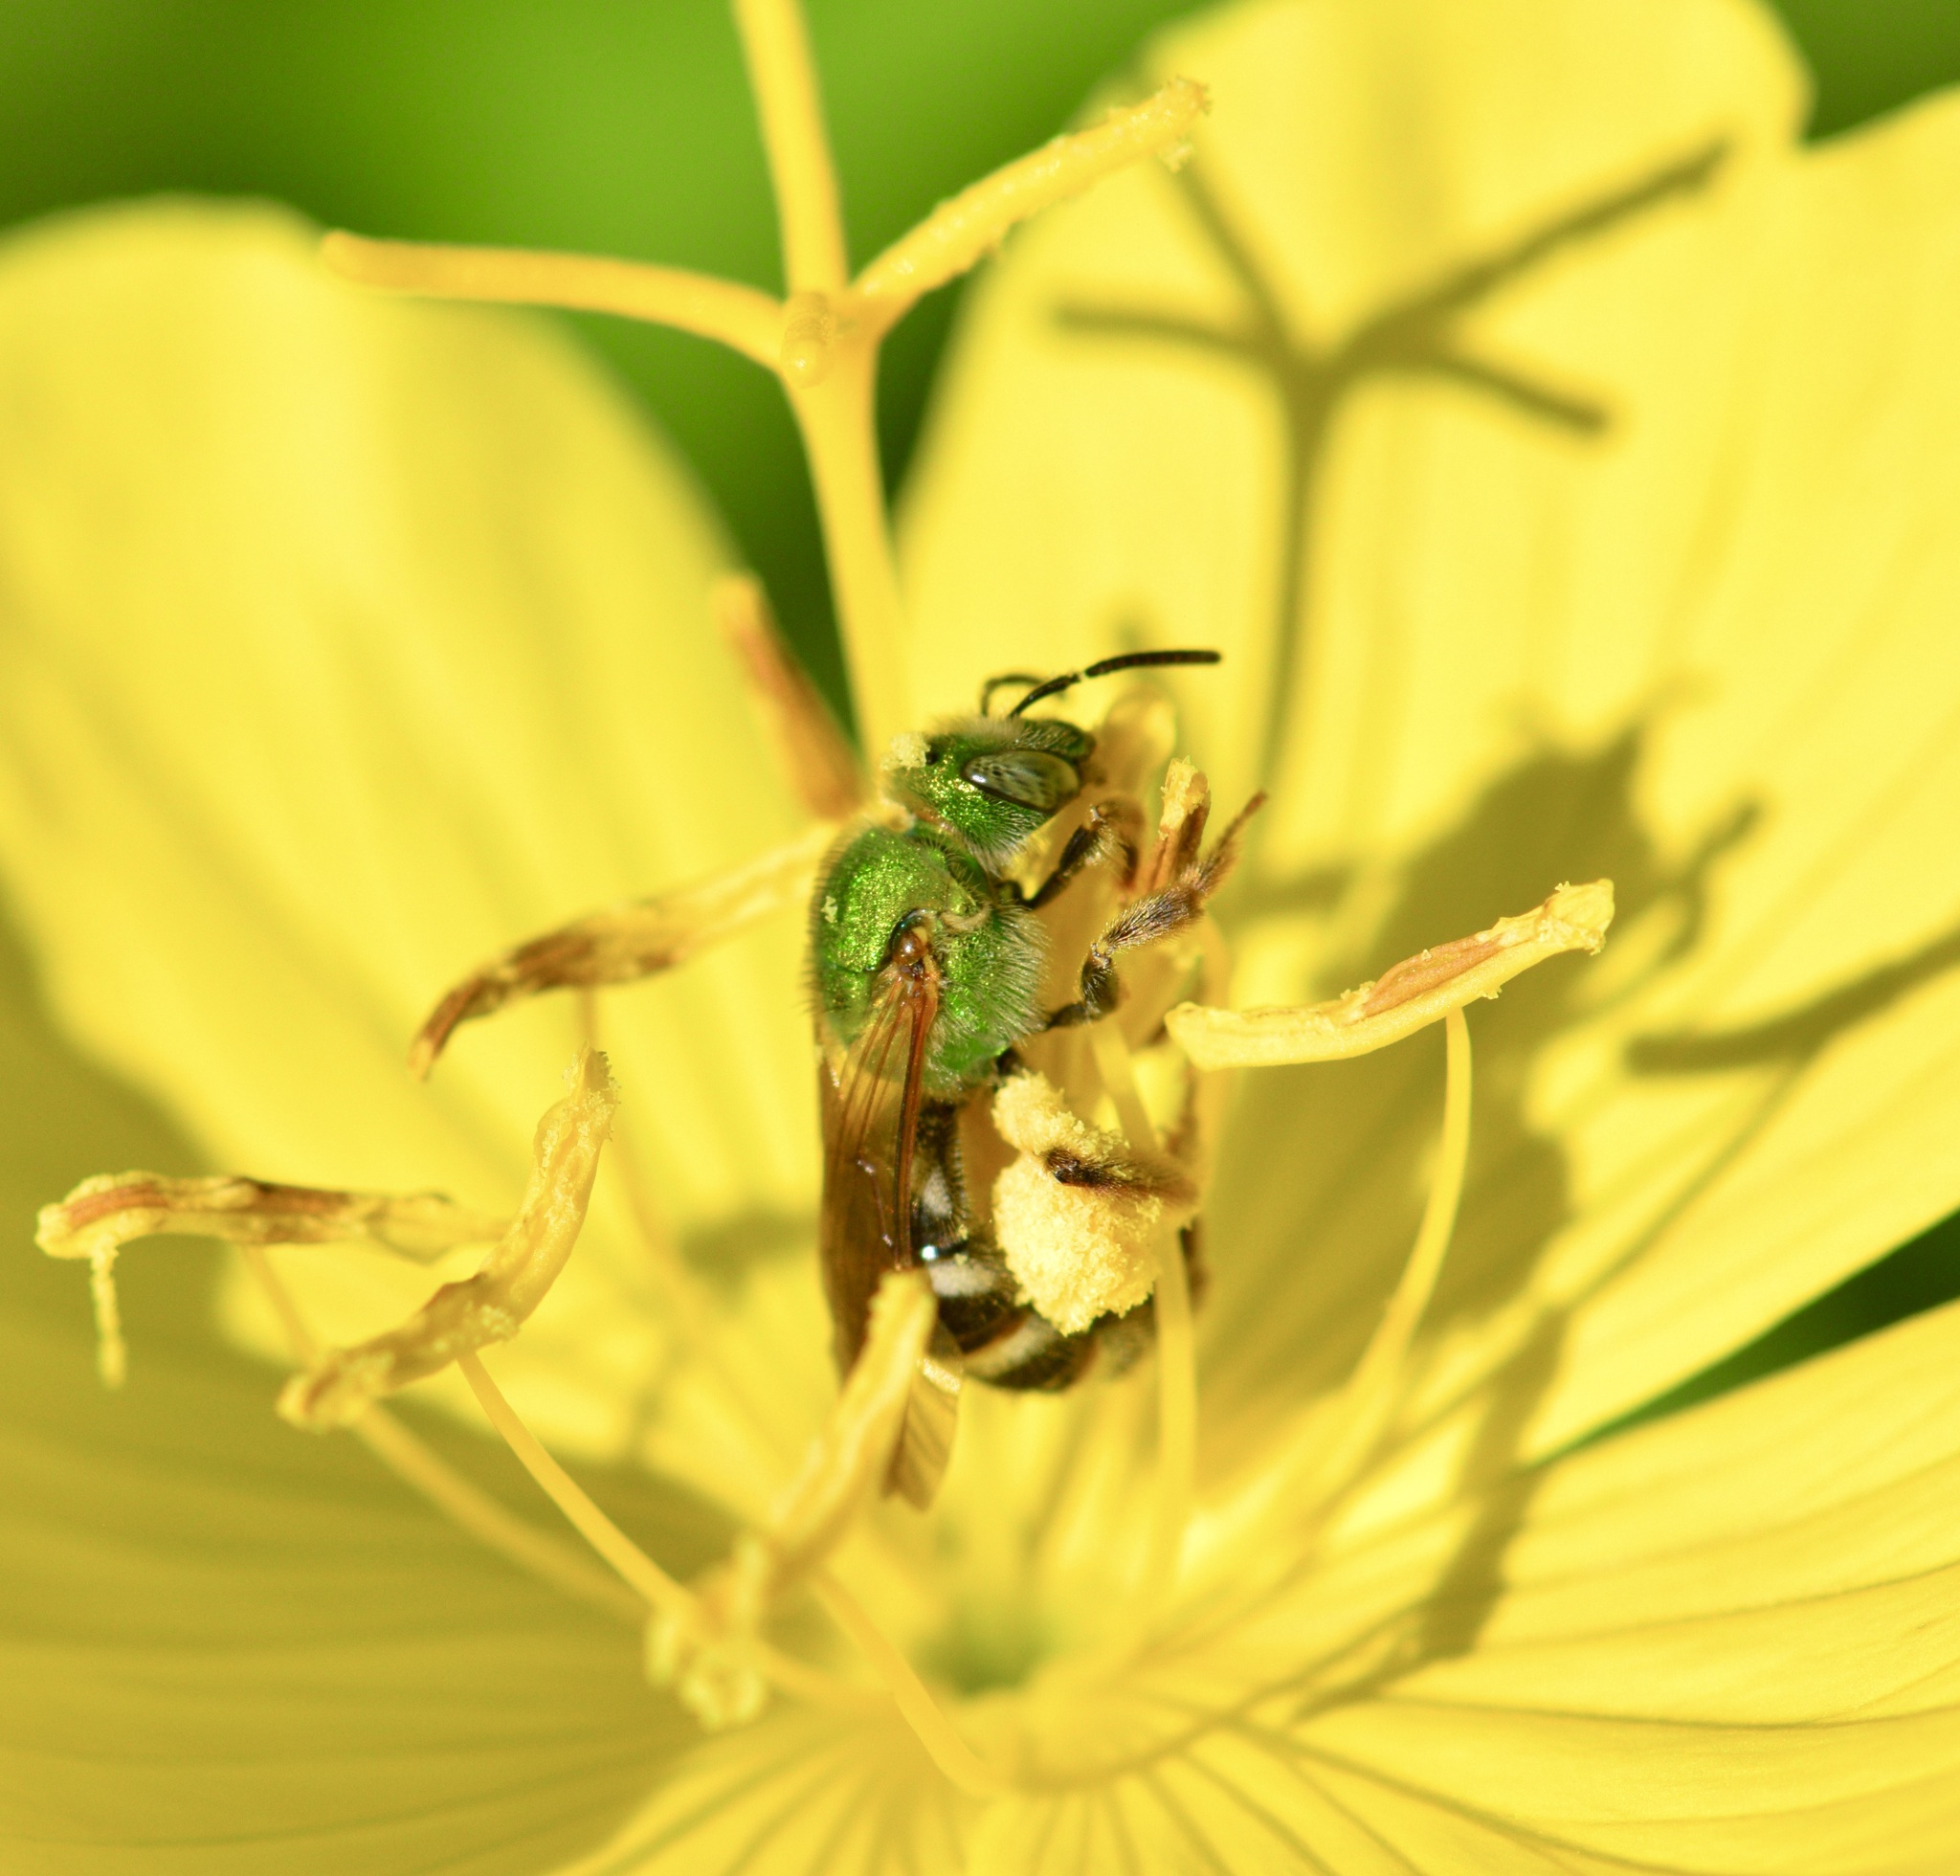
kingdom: Animalia
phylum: Arthropoda
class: Insecta
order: Hymenoptera
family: Halictidae
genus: Agapostemon
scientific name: Agapostemon virescens
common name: Bicolored striped sweat bee
